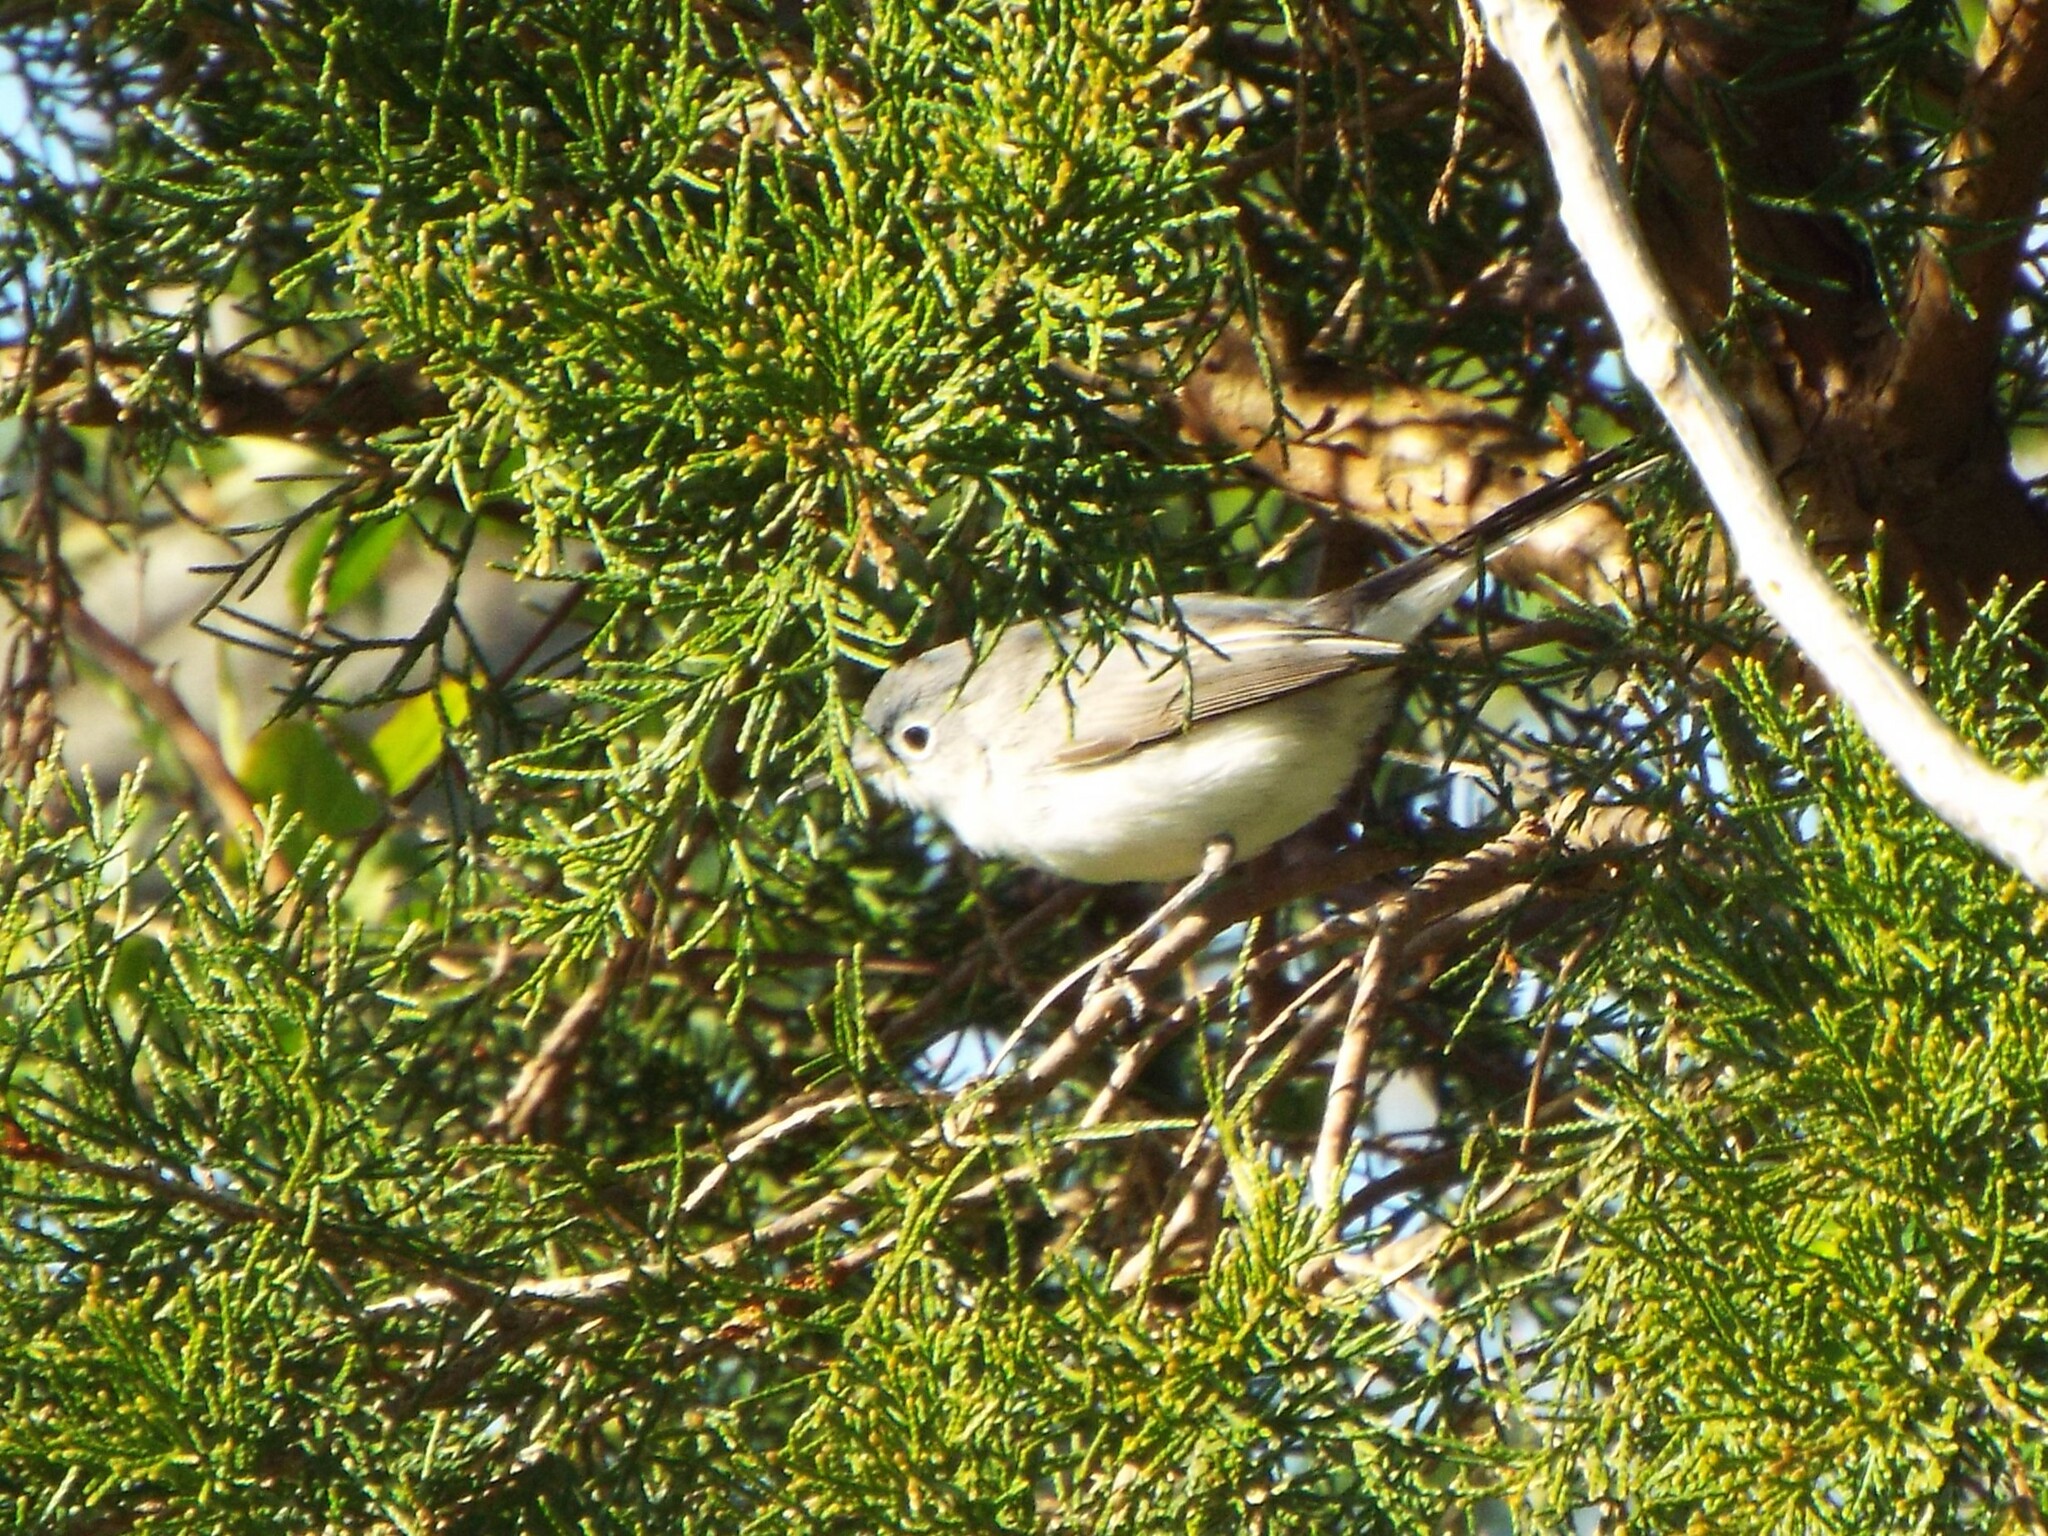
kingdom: Animalia
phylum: Chordata
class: Aves
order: Passeriformes
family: Polioptilidae
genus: Polioptila
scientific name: Polioptila caerulea
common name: Blue-gray gnatcatcher
